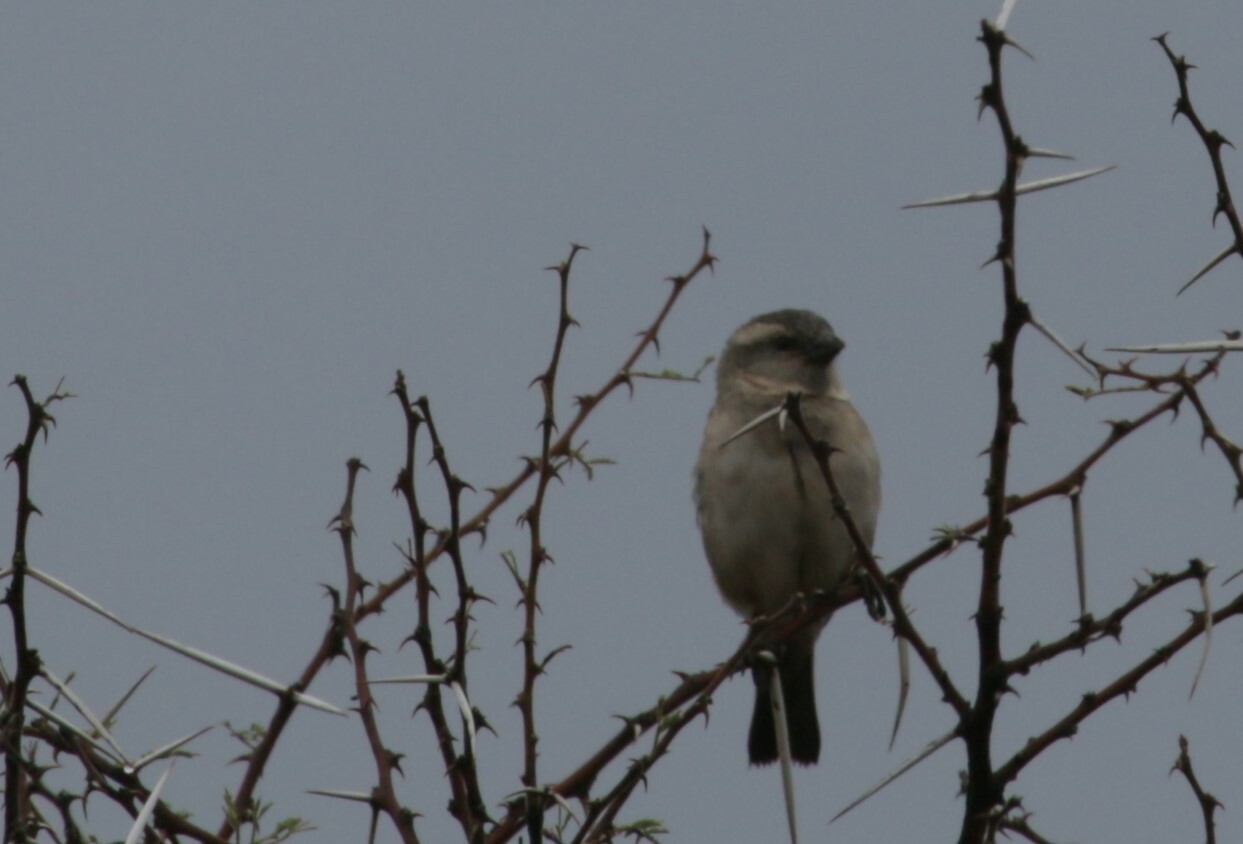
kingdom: Animalia
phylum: Chordata
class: Aves
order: Passeriformes
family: Passeridae
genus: Passer
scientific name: Passer melanurus
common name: Cape sparrow
